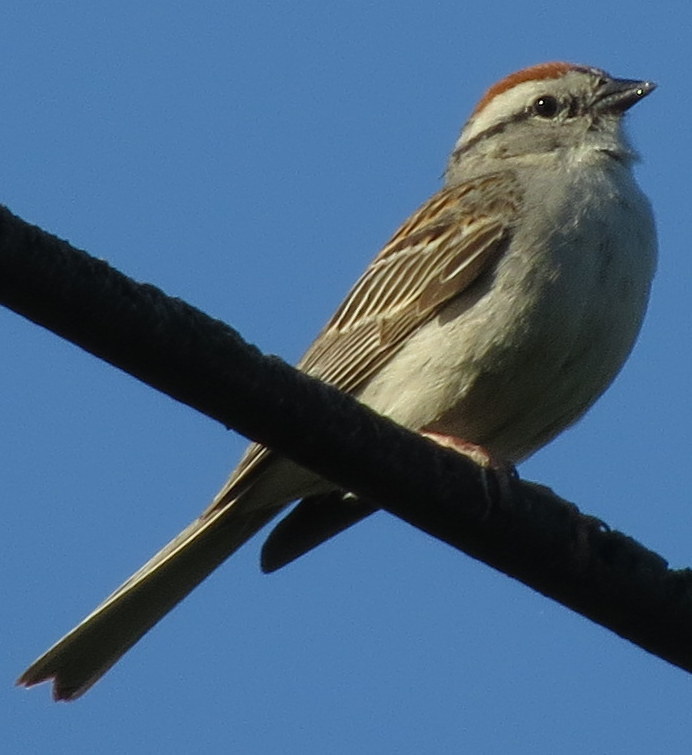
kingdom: Animalia
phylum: Chordata
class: Aves
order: Passeriformes
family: Passerellidae
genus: Spizella
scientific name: Spizella passerina
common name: Chipping sparrow
